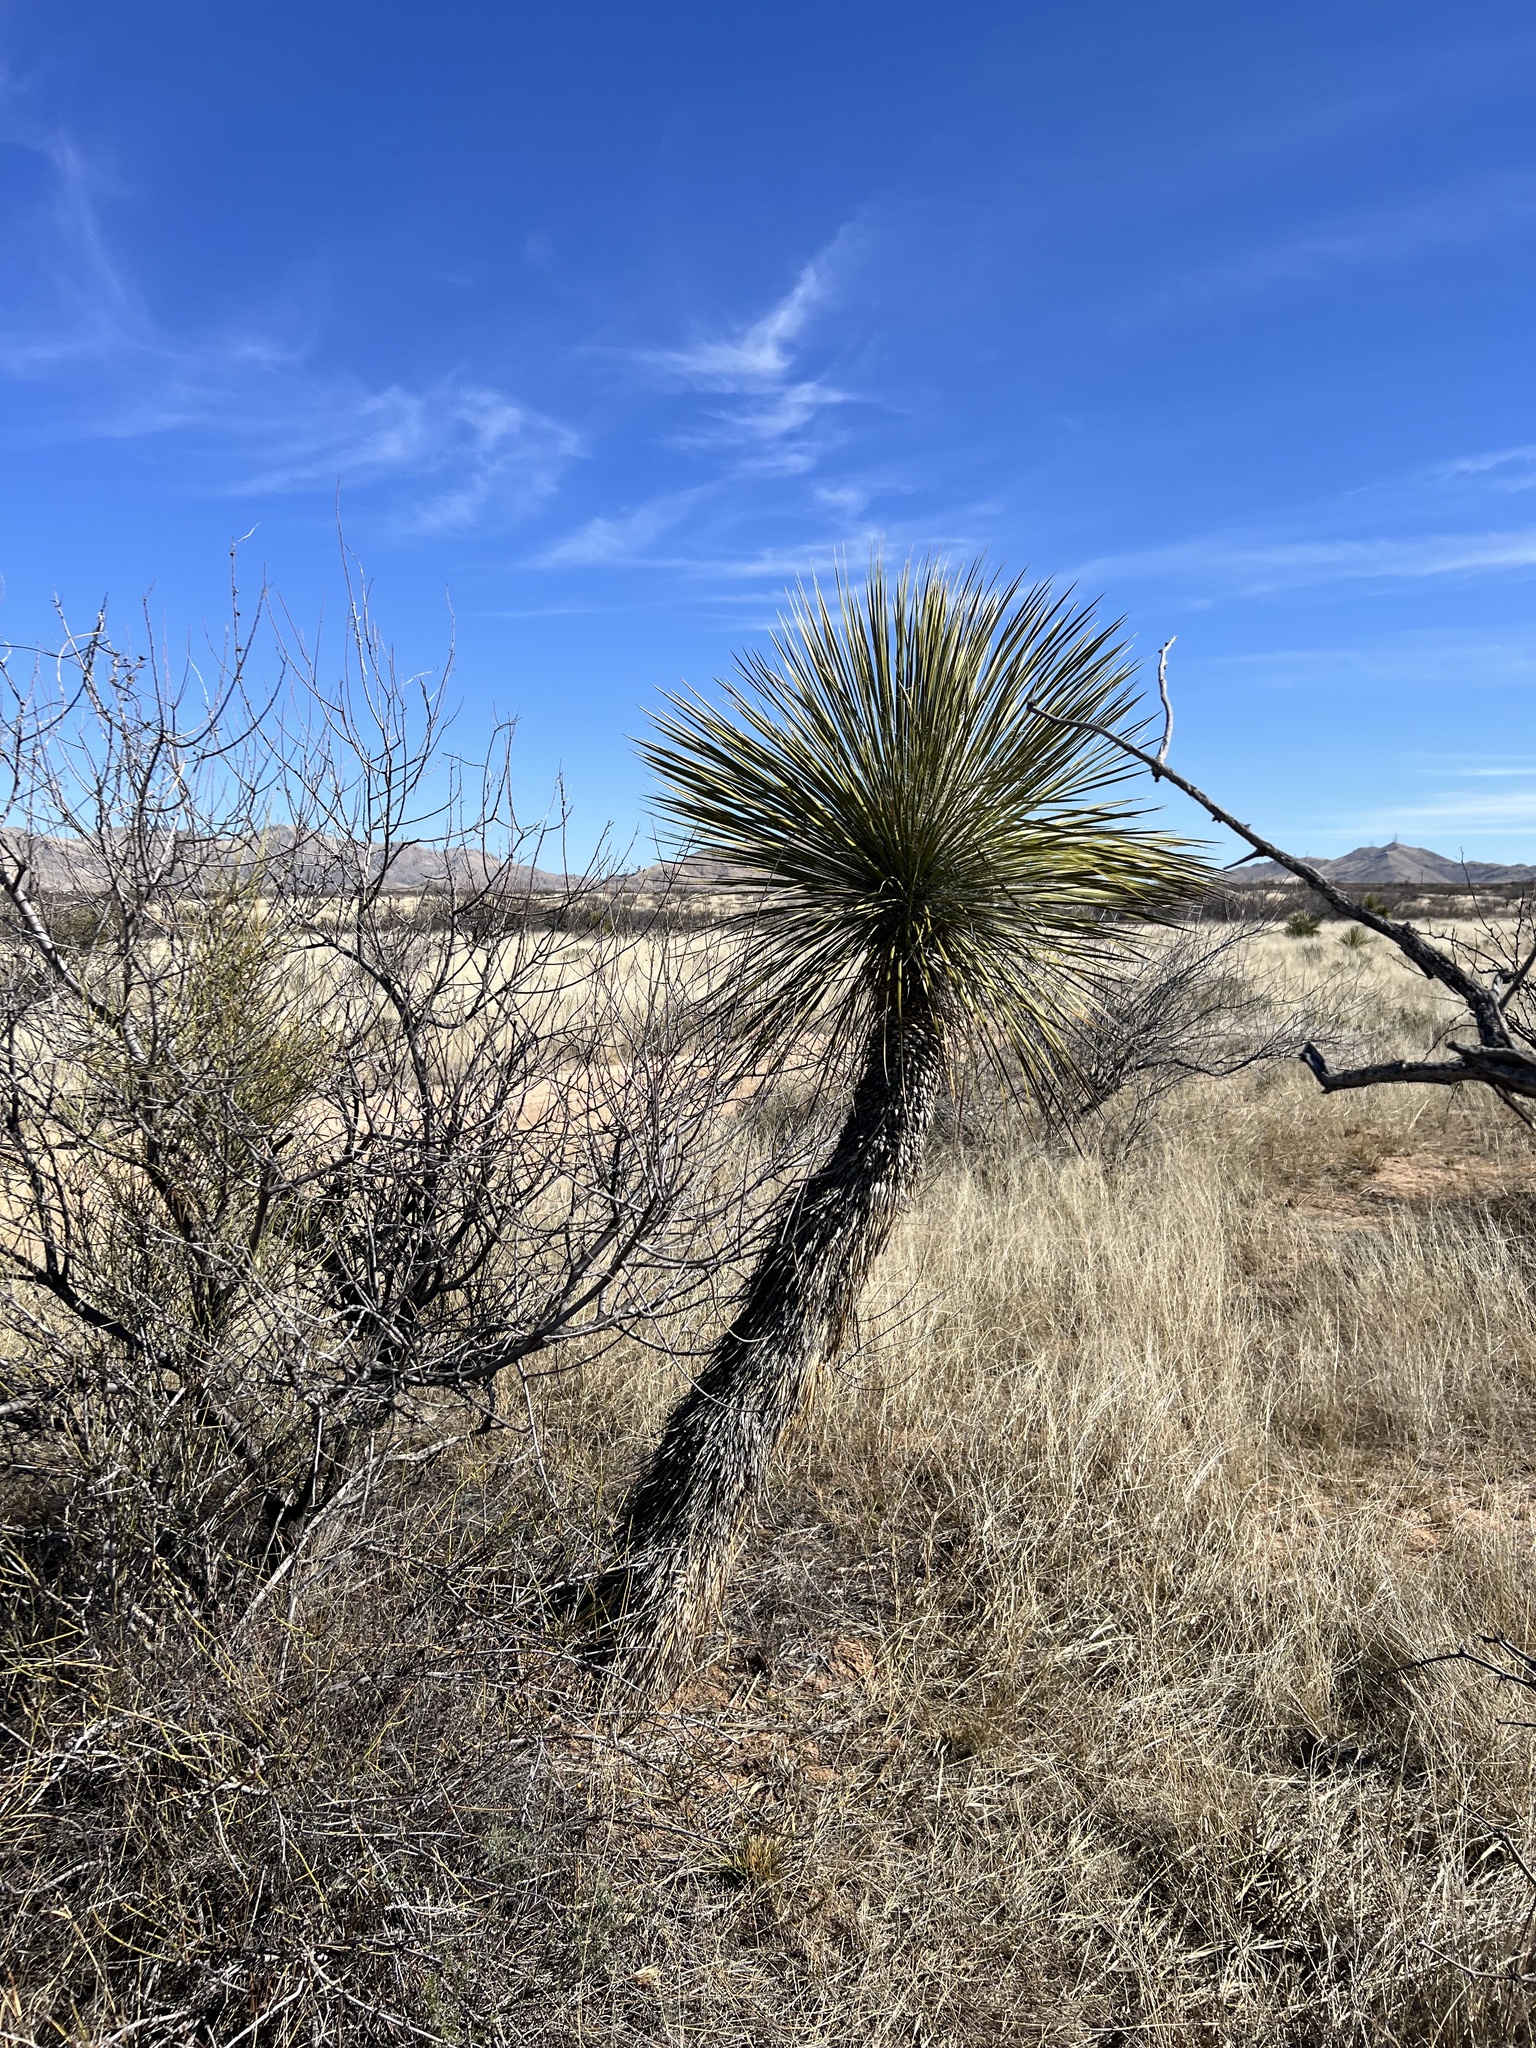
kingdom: Plantae
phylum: Tracheophyta
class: Liliopsida
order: Asparagales
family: Asparagaceae
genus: Yucca
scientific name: Yucca elata
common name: Palmella
